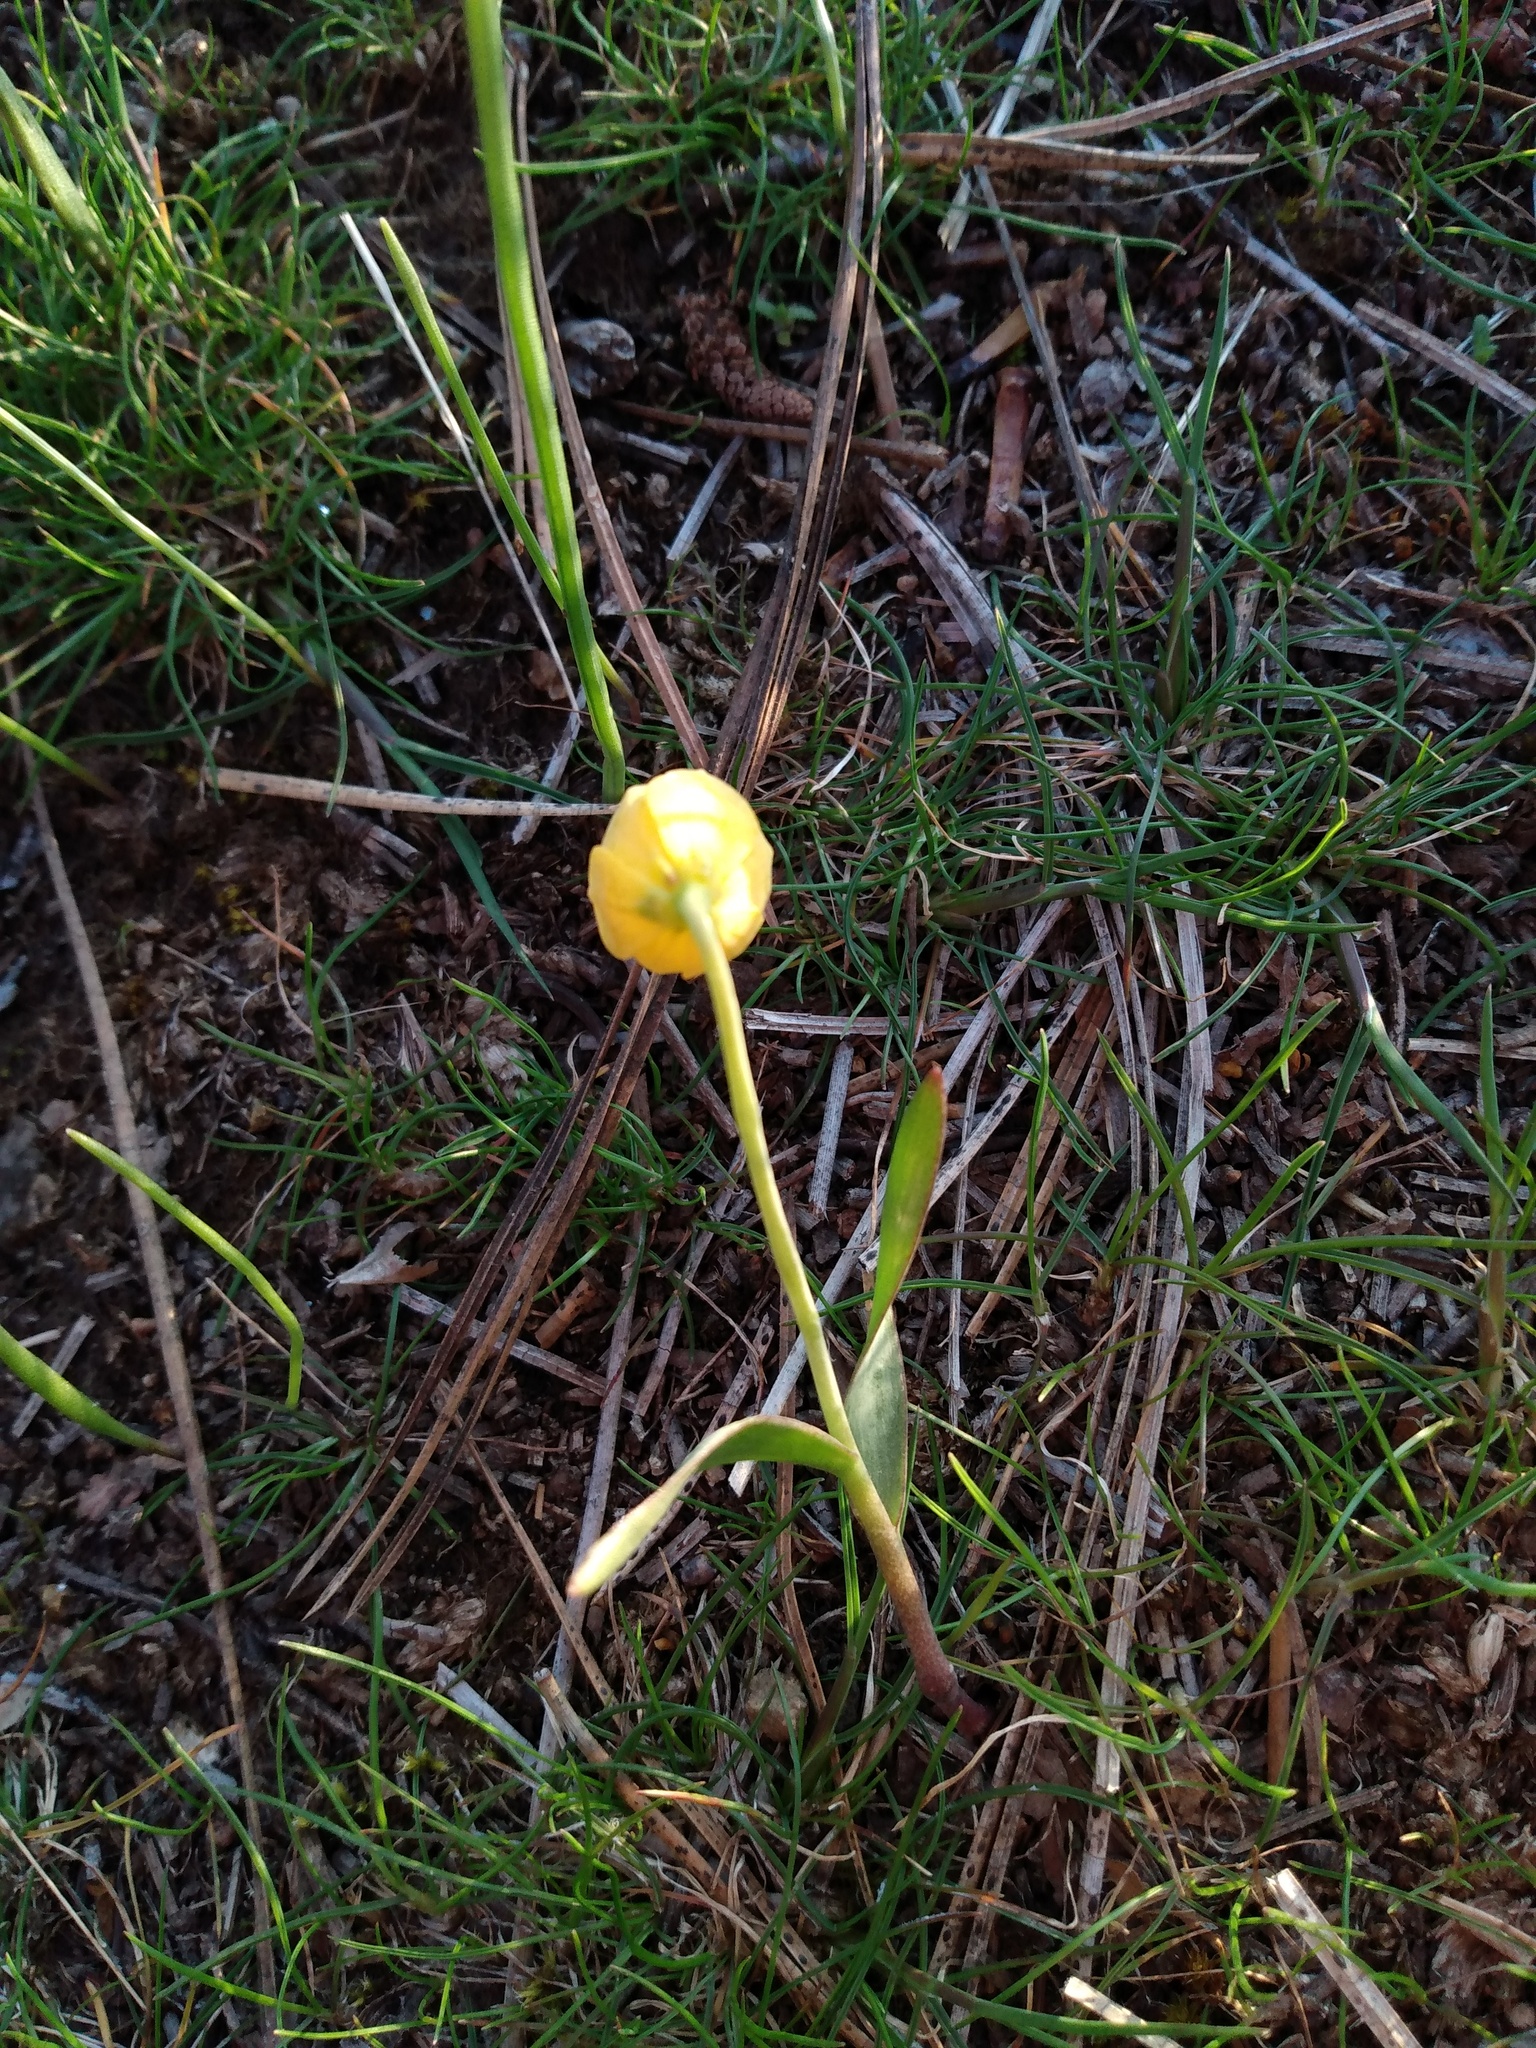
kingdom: Plantae
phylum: Tracheophyta
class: Liliopsida
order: Liliales
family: Liliaceae
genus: Fritillaria
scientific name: Fritillaria pudica
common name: Yellow fritillary
